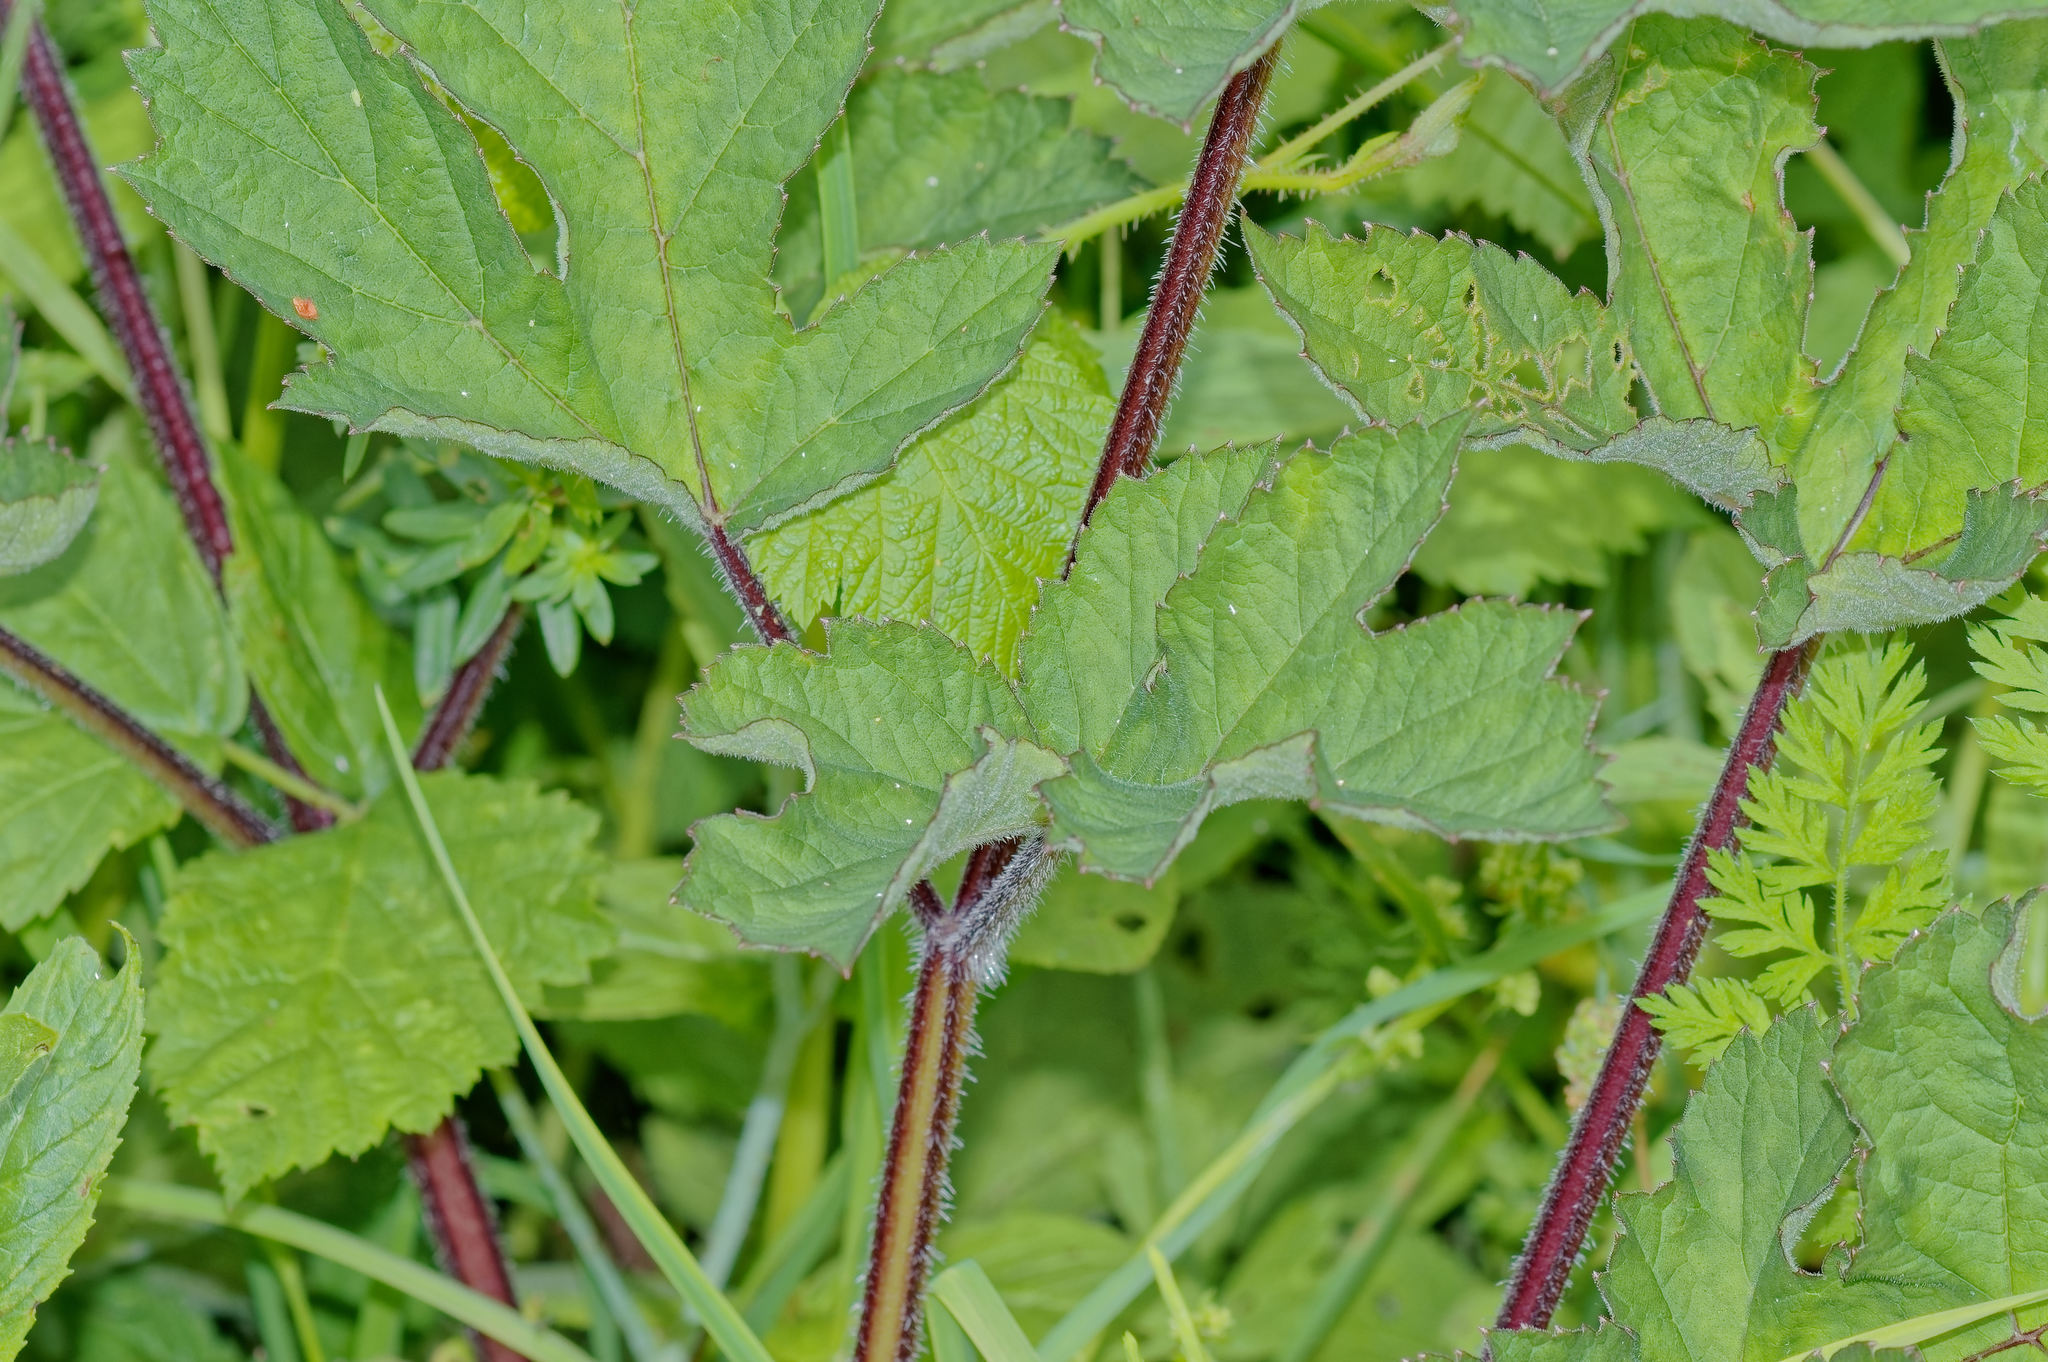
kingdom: Plantae
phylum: Tracheophyta
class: Magnoliopsida
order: Apiales
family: Apiaceae
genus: Heracleum
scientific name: Heracleum sphondylium
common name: Hogweed
